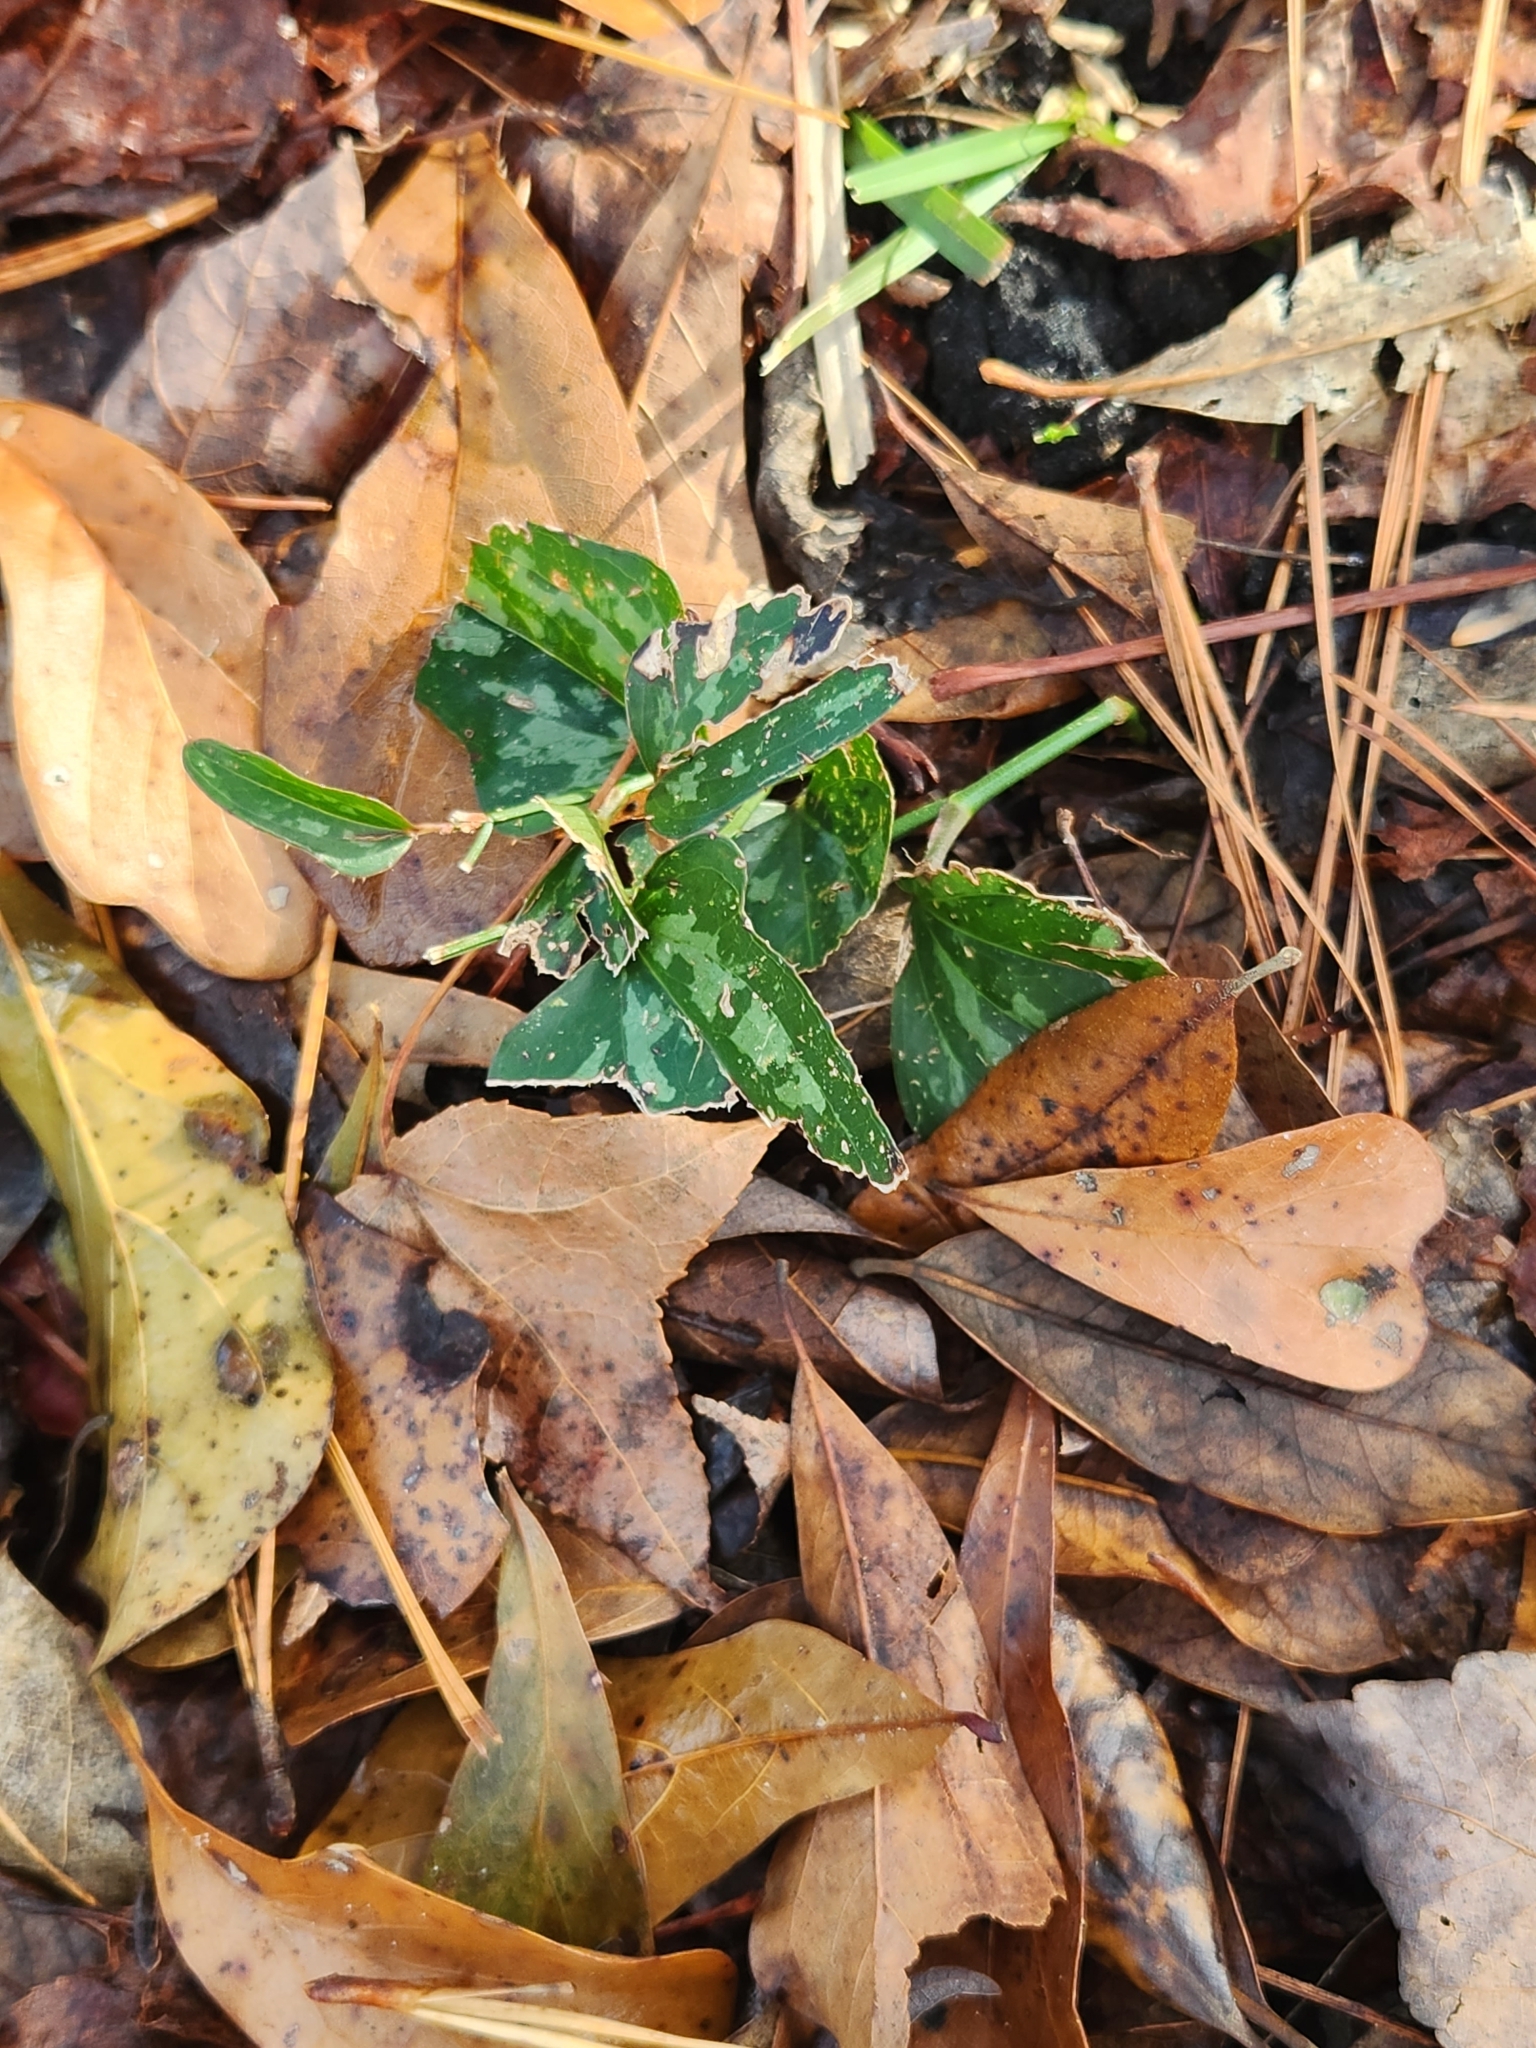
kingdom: Plantae
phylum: Tracheophyta
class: Liliopsida
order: Liliales
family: Smilacaceae
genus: Smilax
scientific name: Smilax bona-nox
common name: Catbrier
